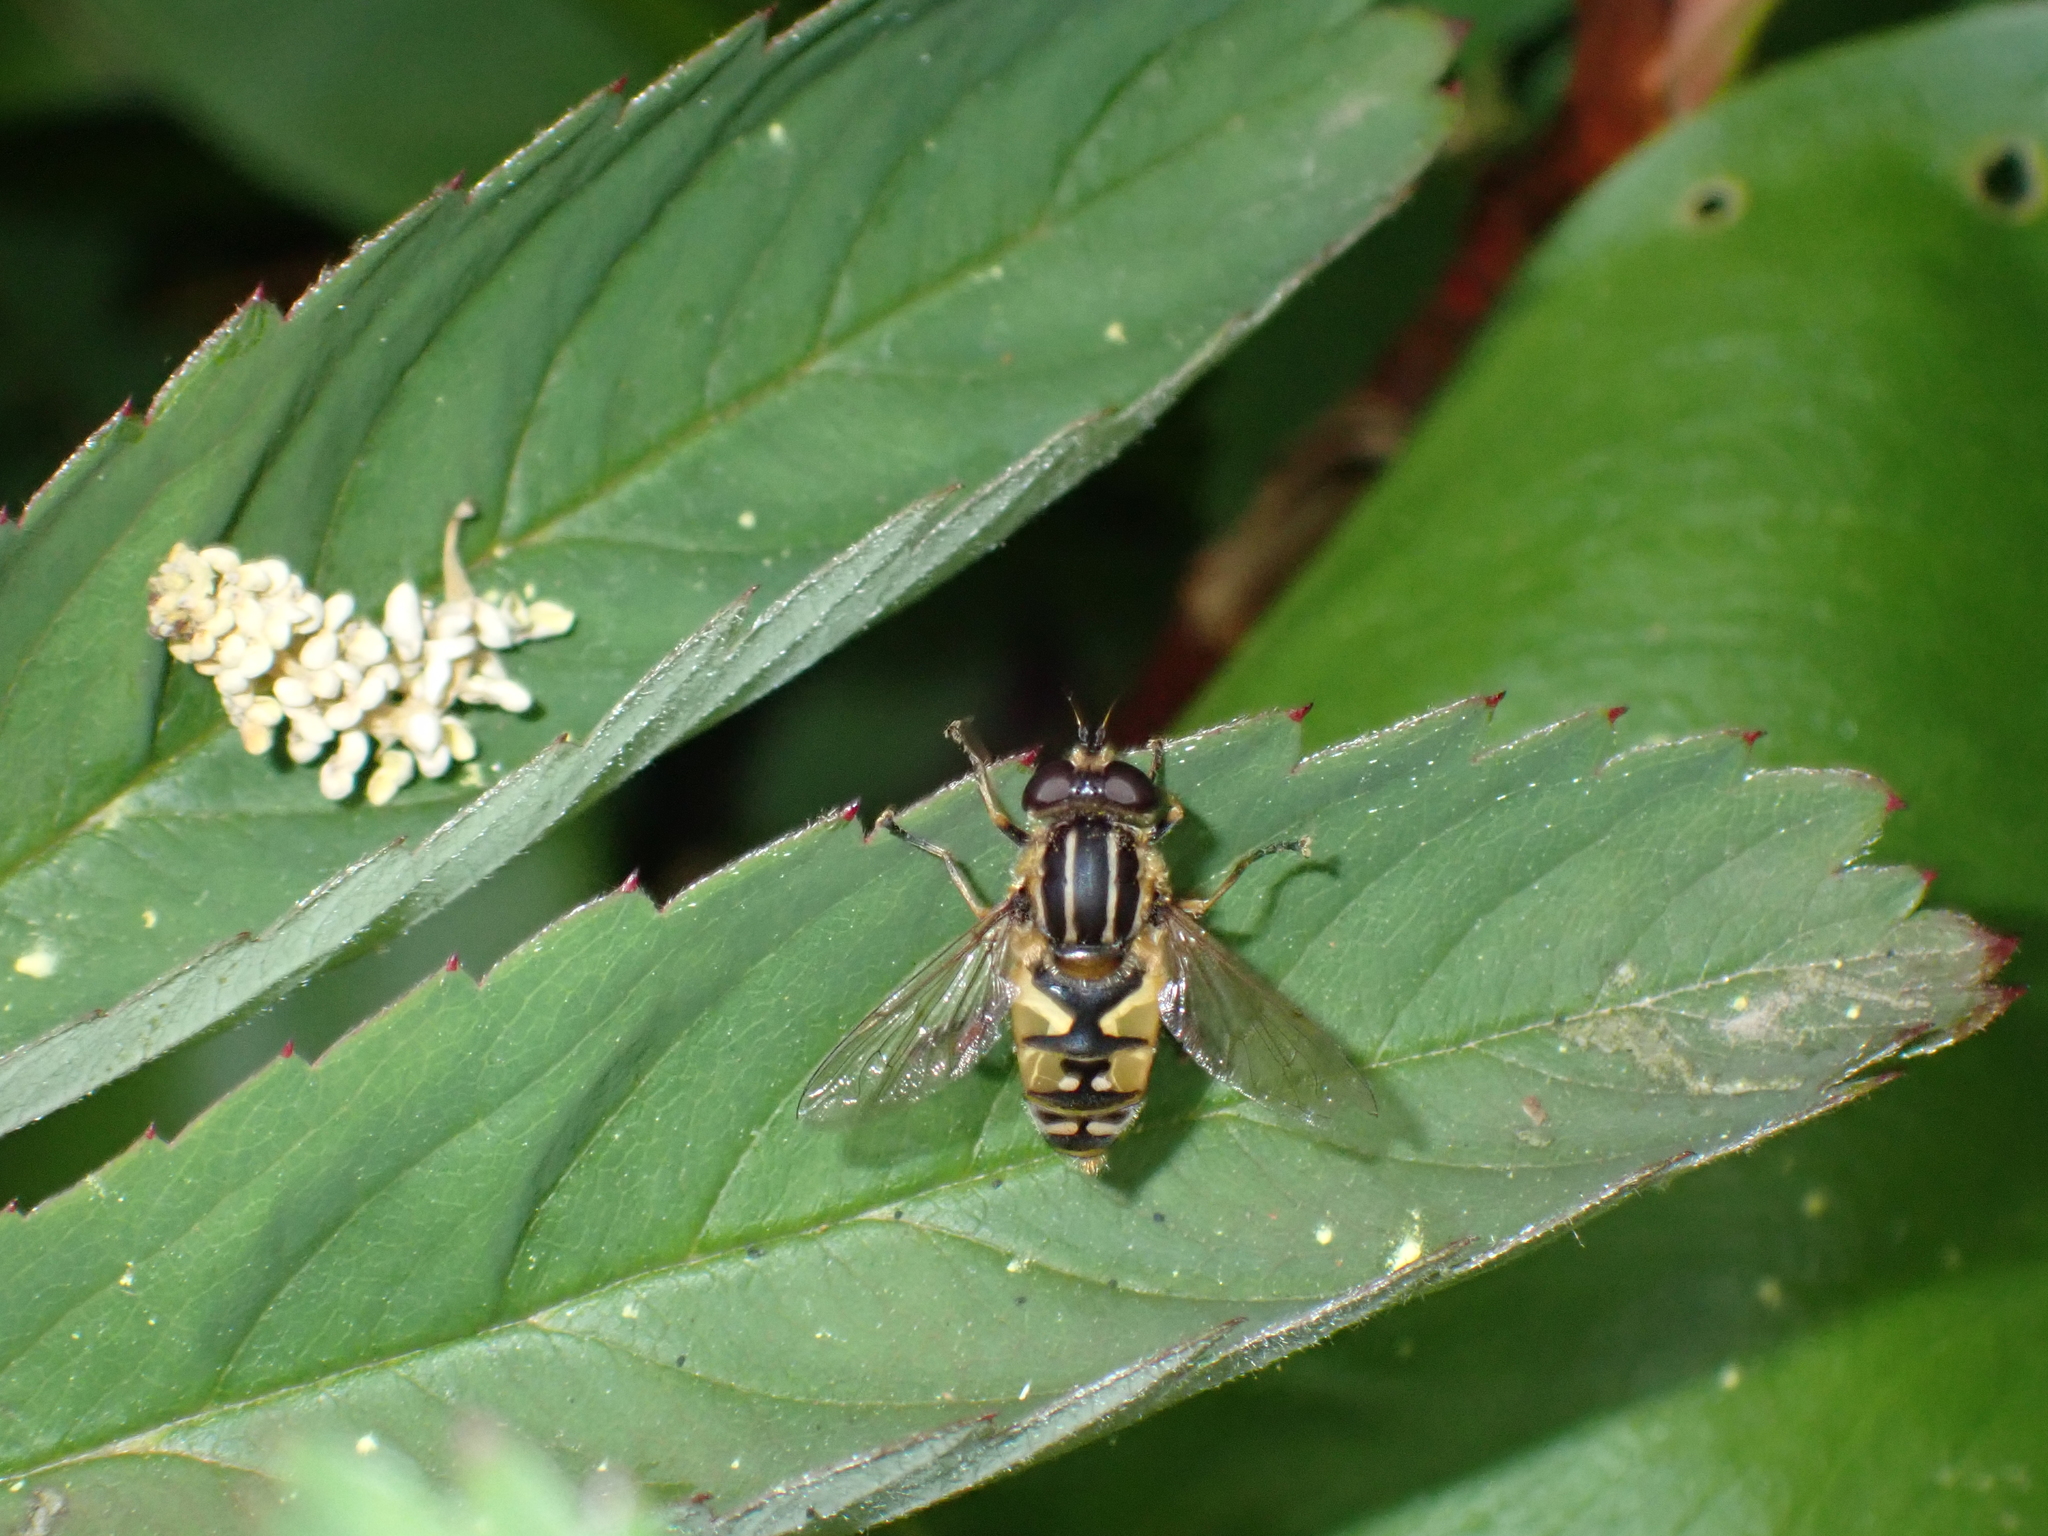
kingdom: Animalia
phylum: Arthropoda
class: Insecta
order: Diptera
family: Syrphidae
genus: Helophilus
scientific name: Helophilus pendulus
